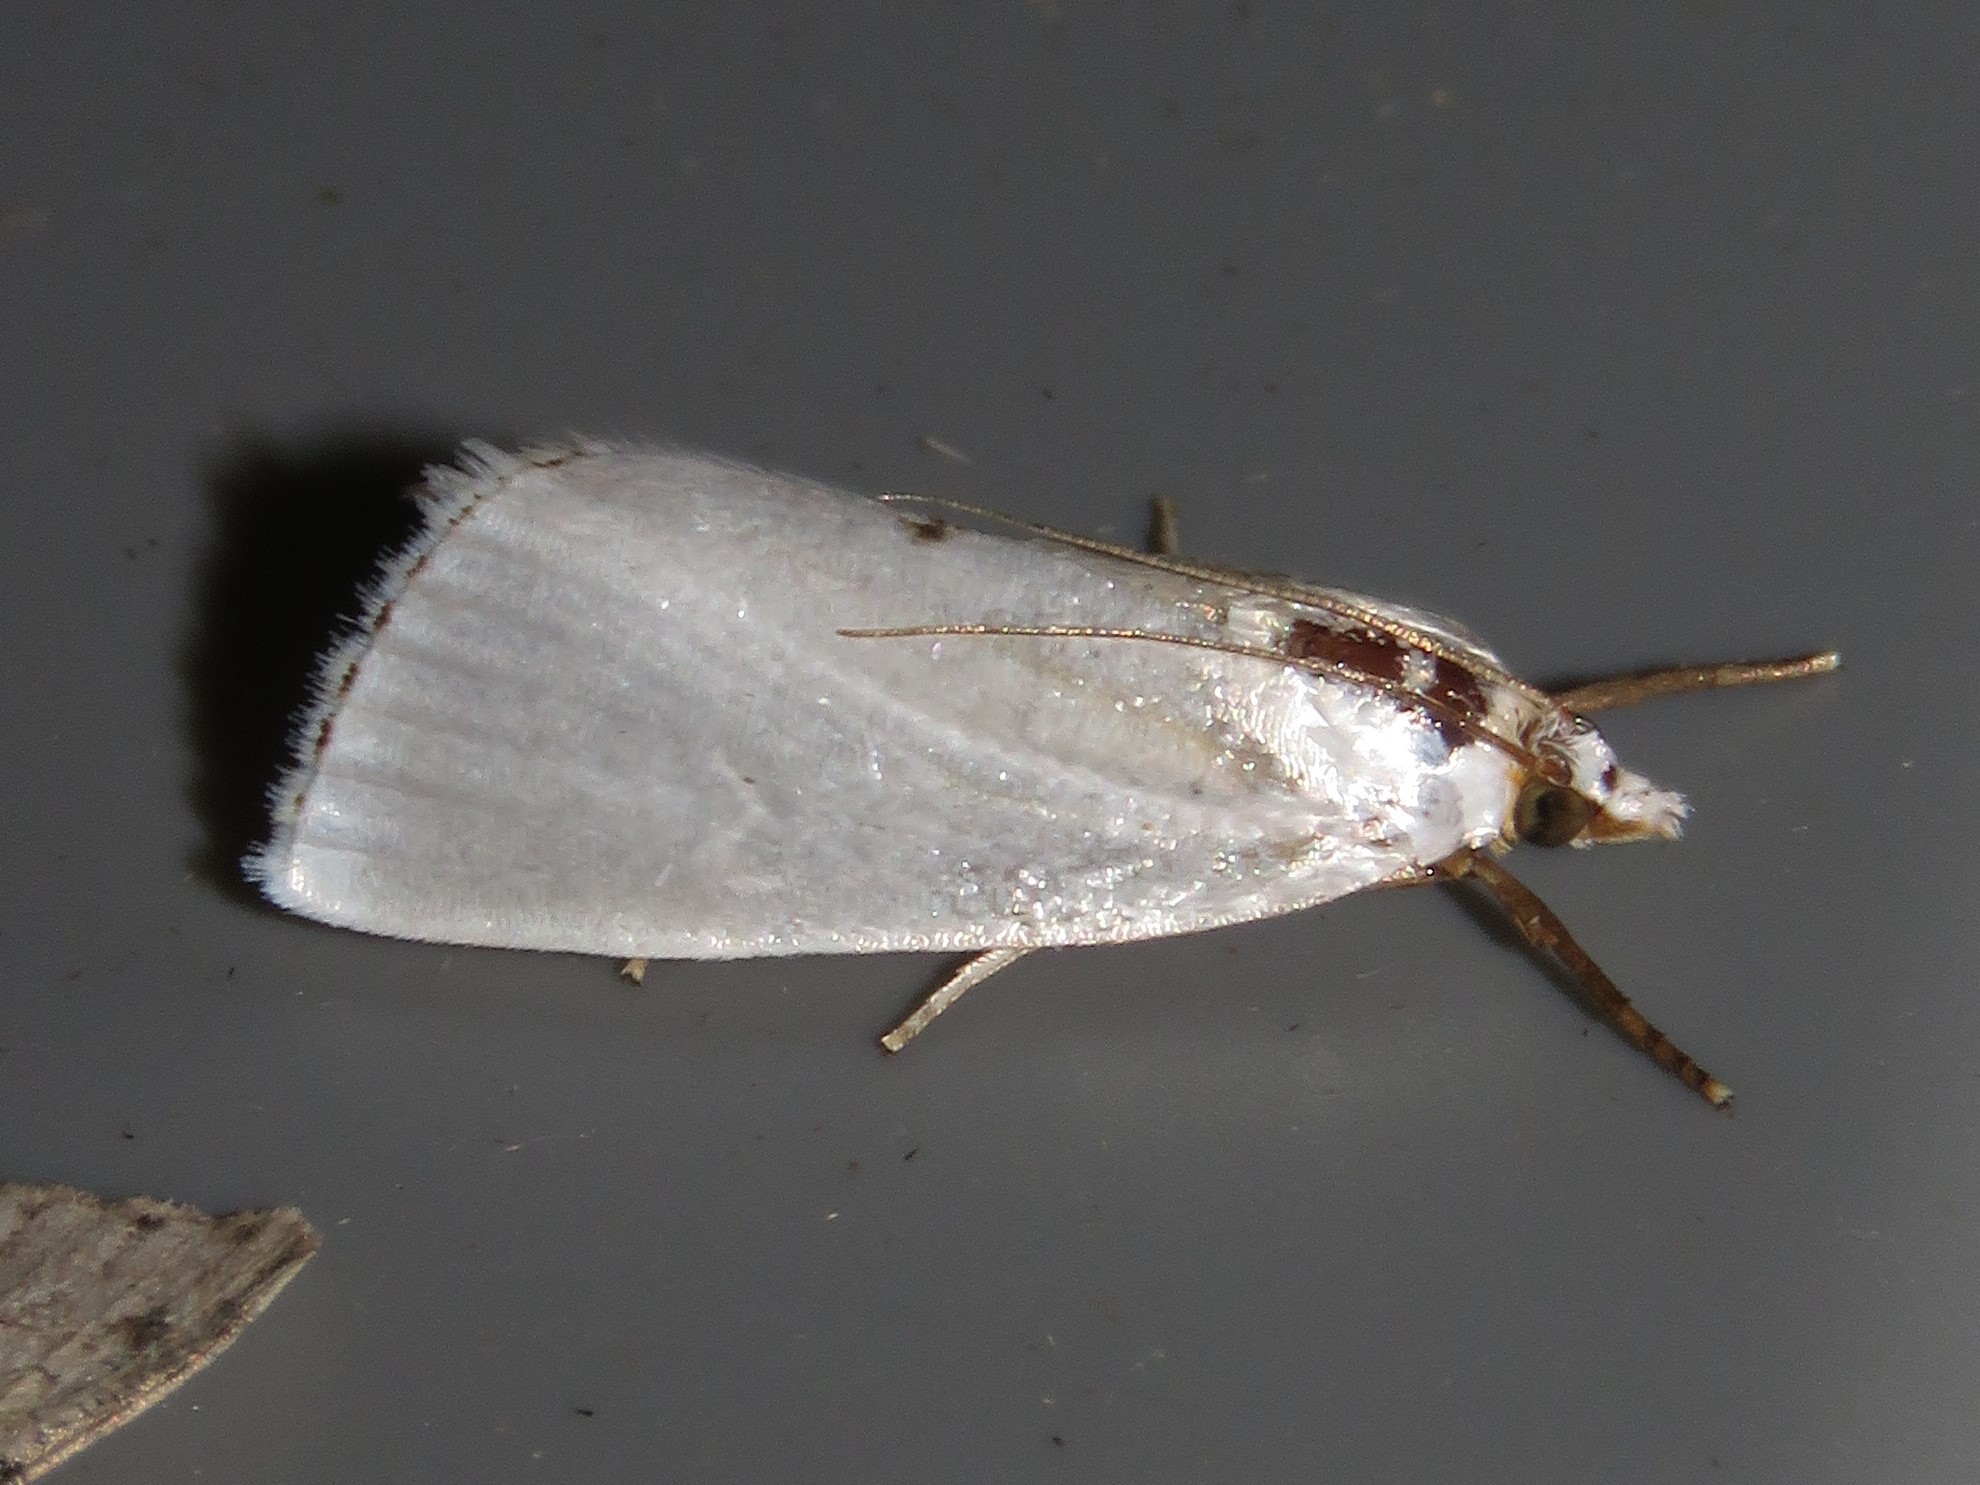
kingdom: Animalia
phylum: Arthropoda
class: Insecta
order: Lepidoptera
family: Crambidae
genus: Argyria
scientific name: Argyria nivalis
